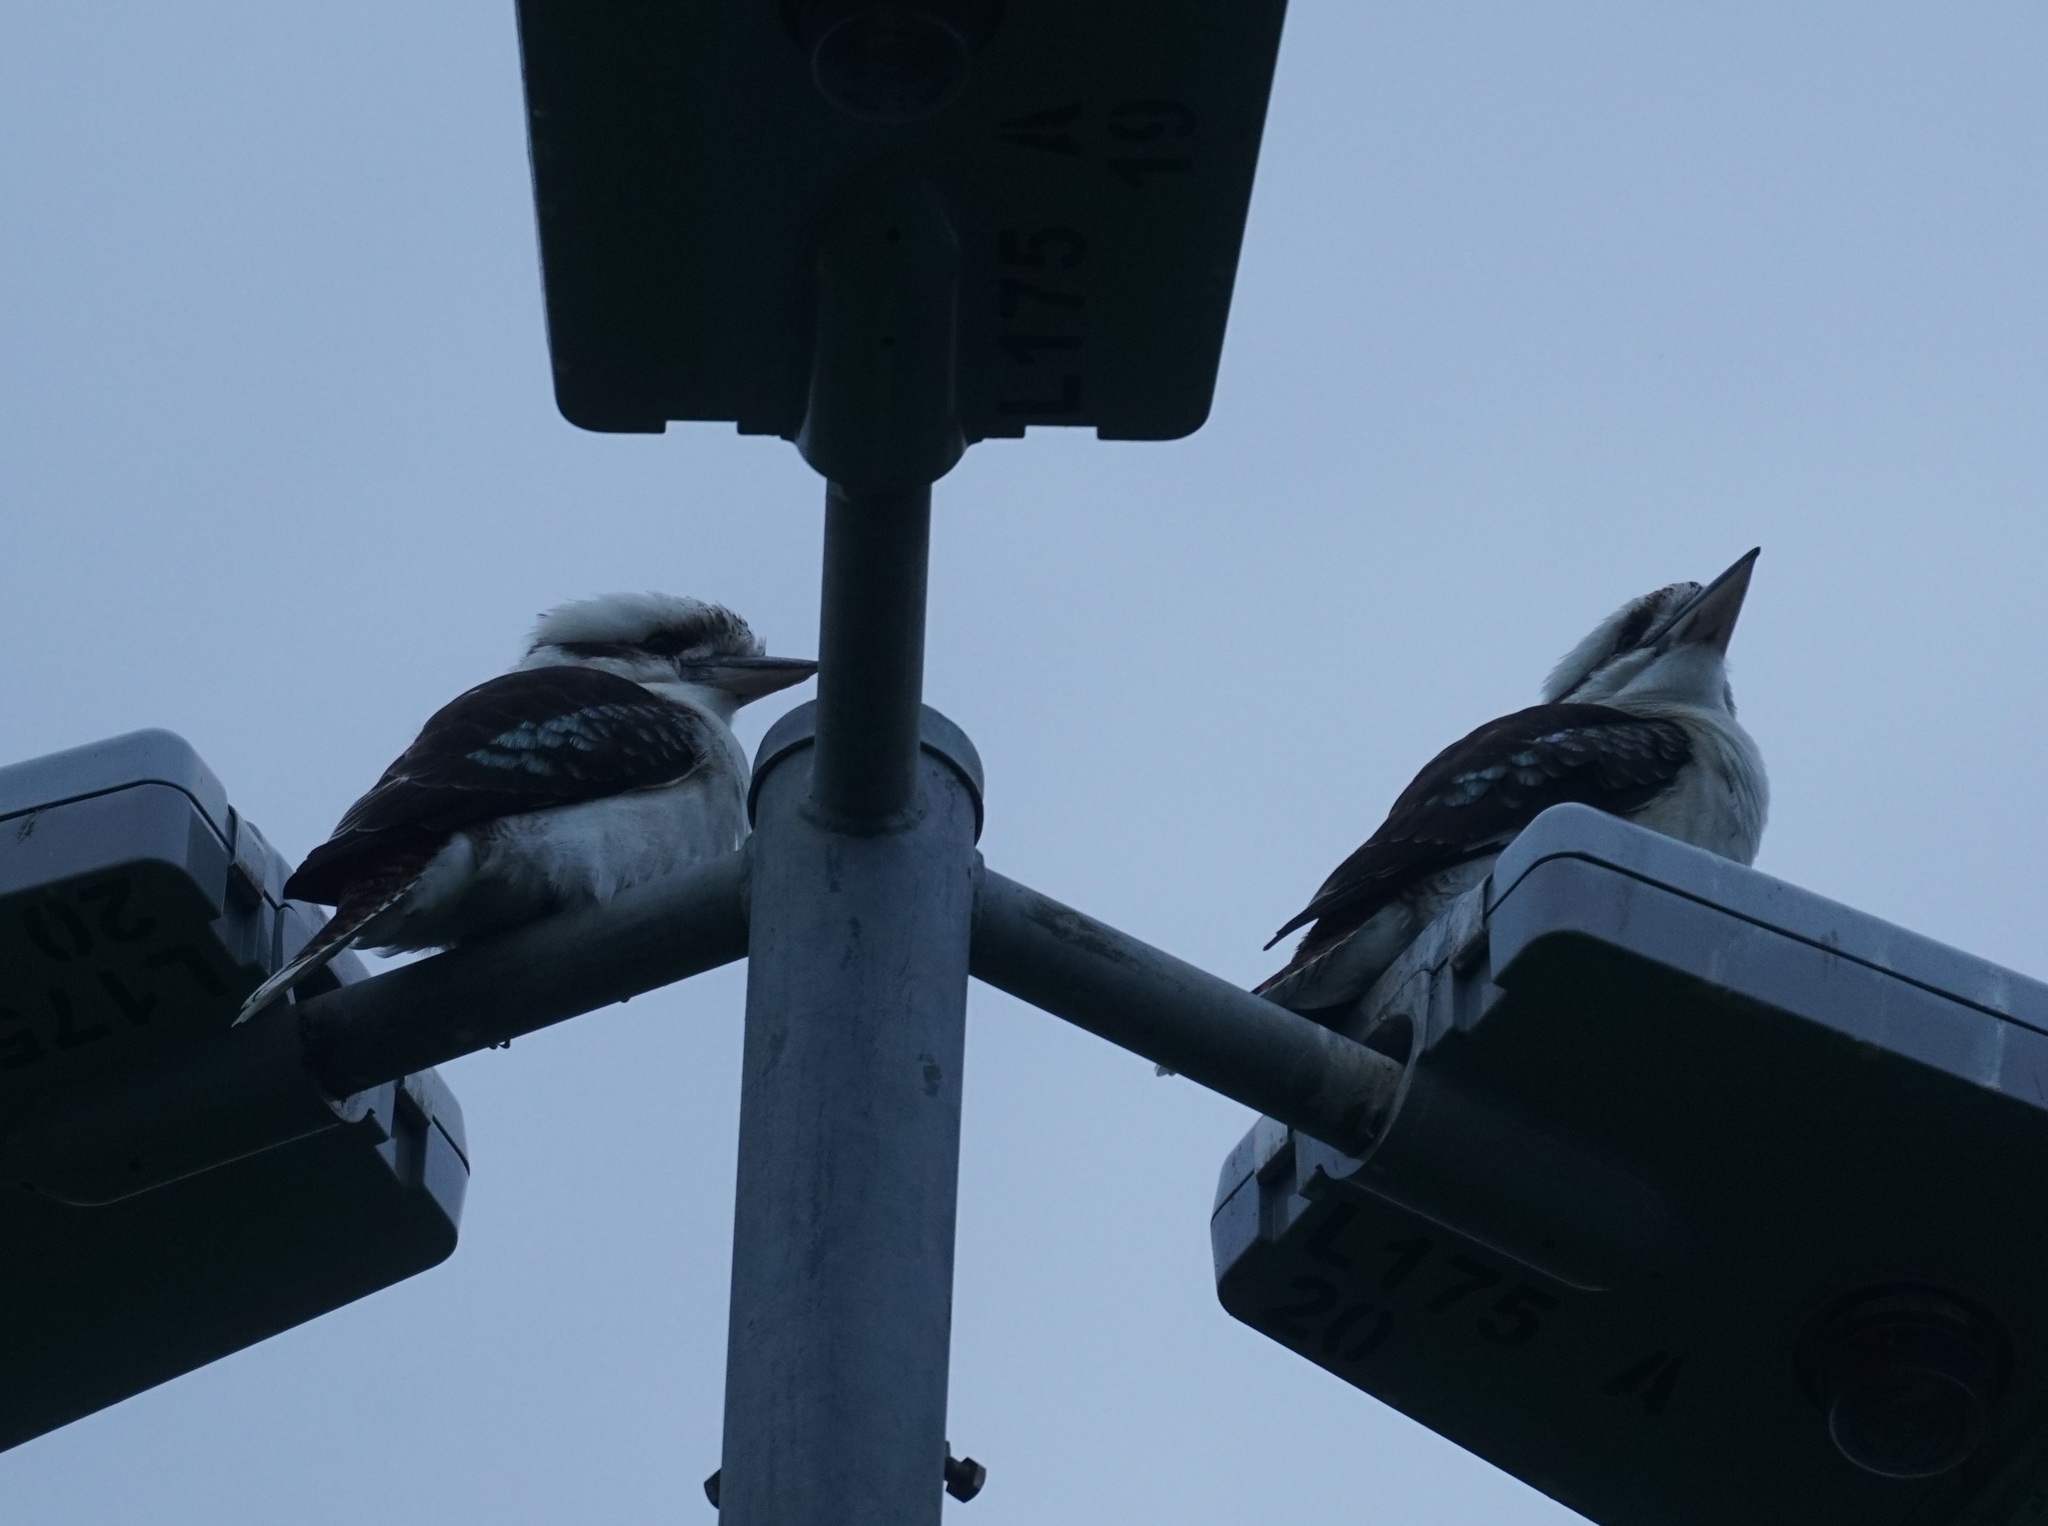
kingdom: Animalia
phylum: Chordata
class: Aves
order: Coraciiformes
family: Alcedinidae
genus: Dacelo
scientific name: Dacelo novaeguineae
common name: Laughing kookaburra
